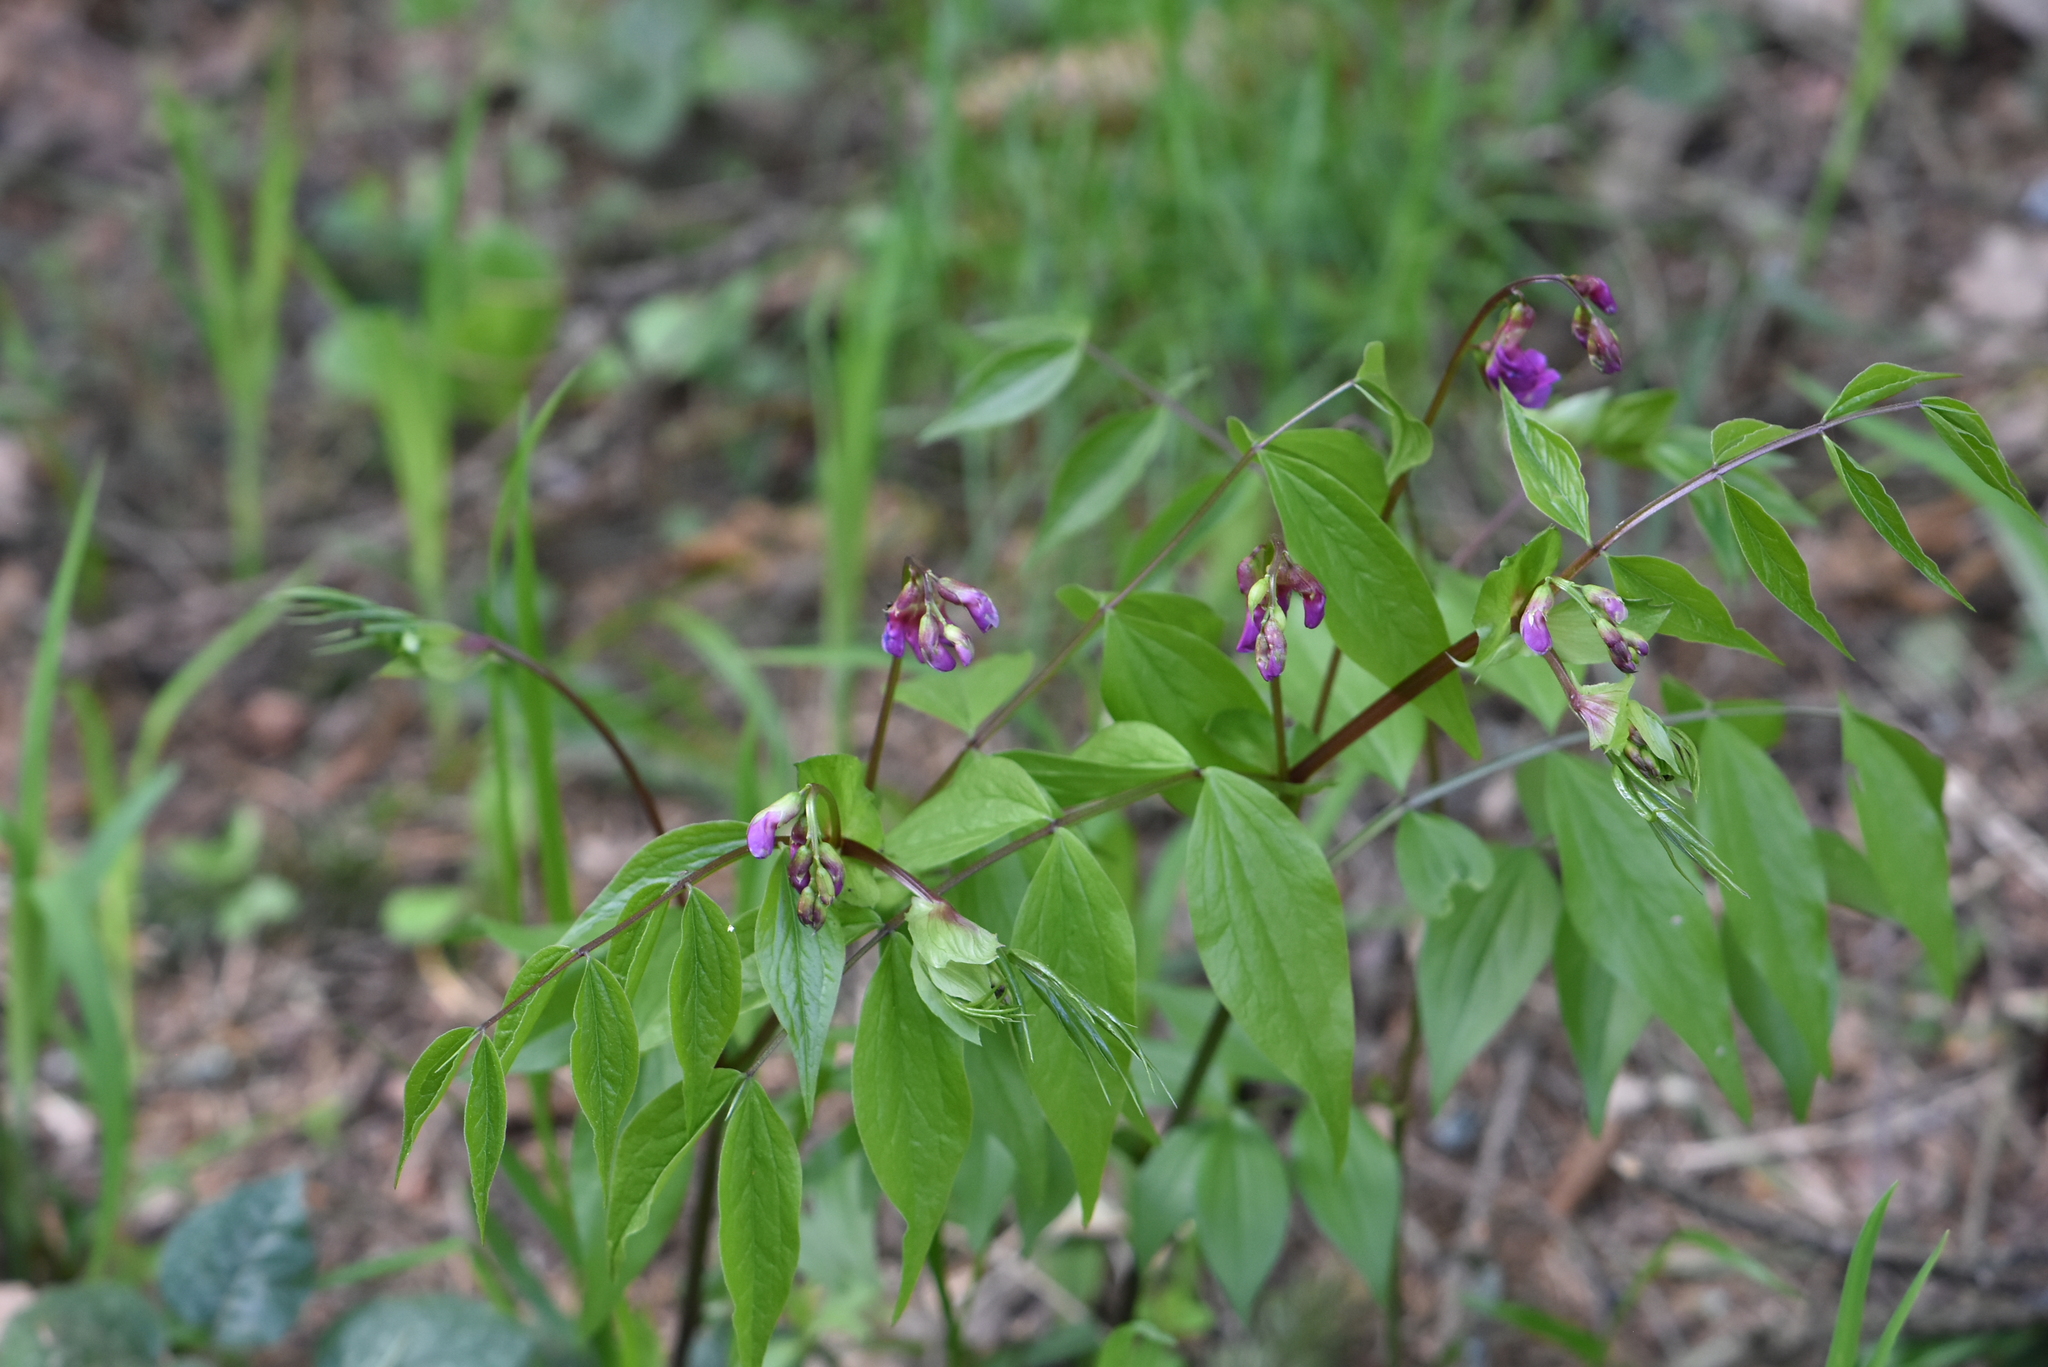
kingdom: Plantae
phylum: Tracheophyta
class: Magnoliopsida
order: Fabales
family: Fabaceae
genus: Lathyrus
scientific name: Lathyrus vernus
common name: Spring pea
